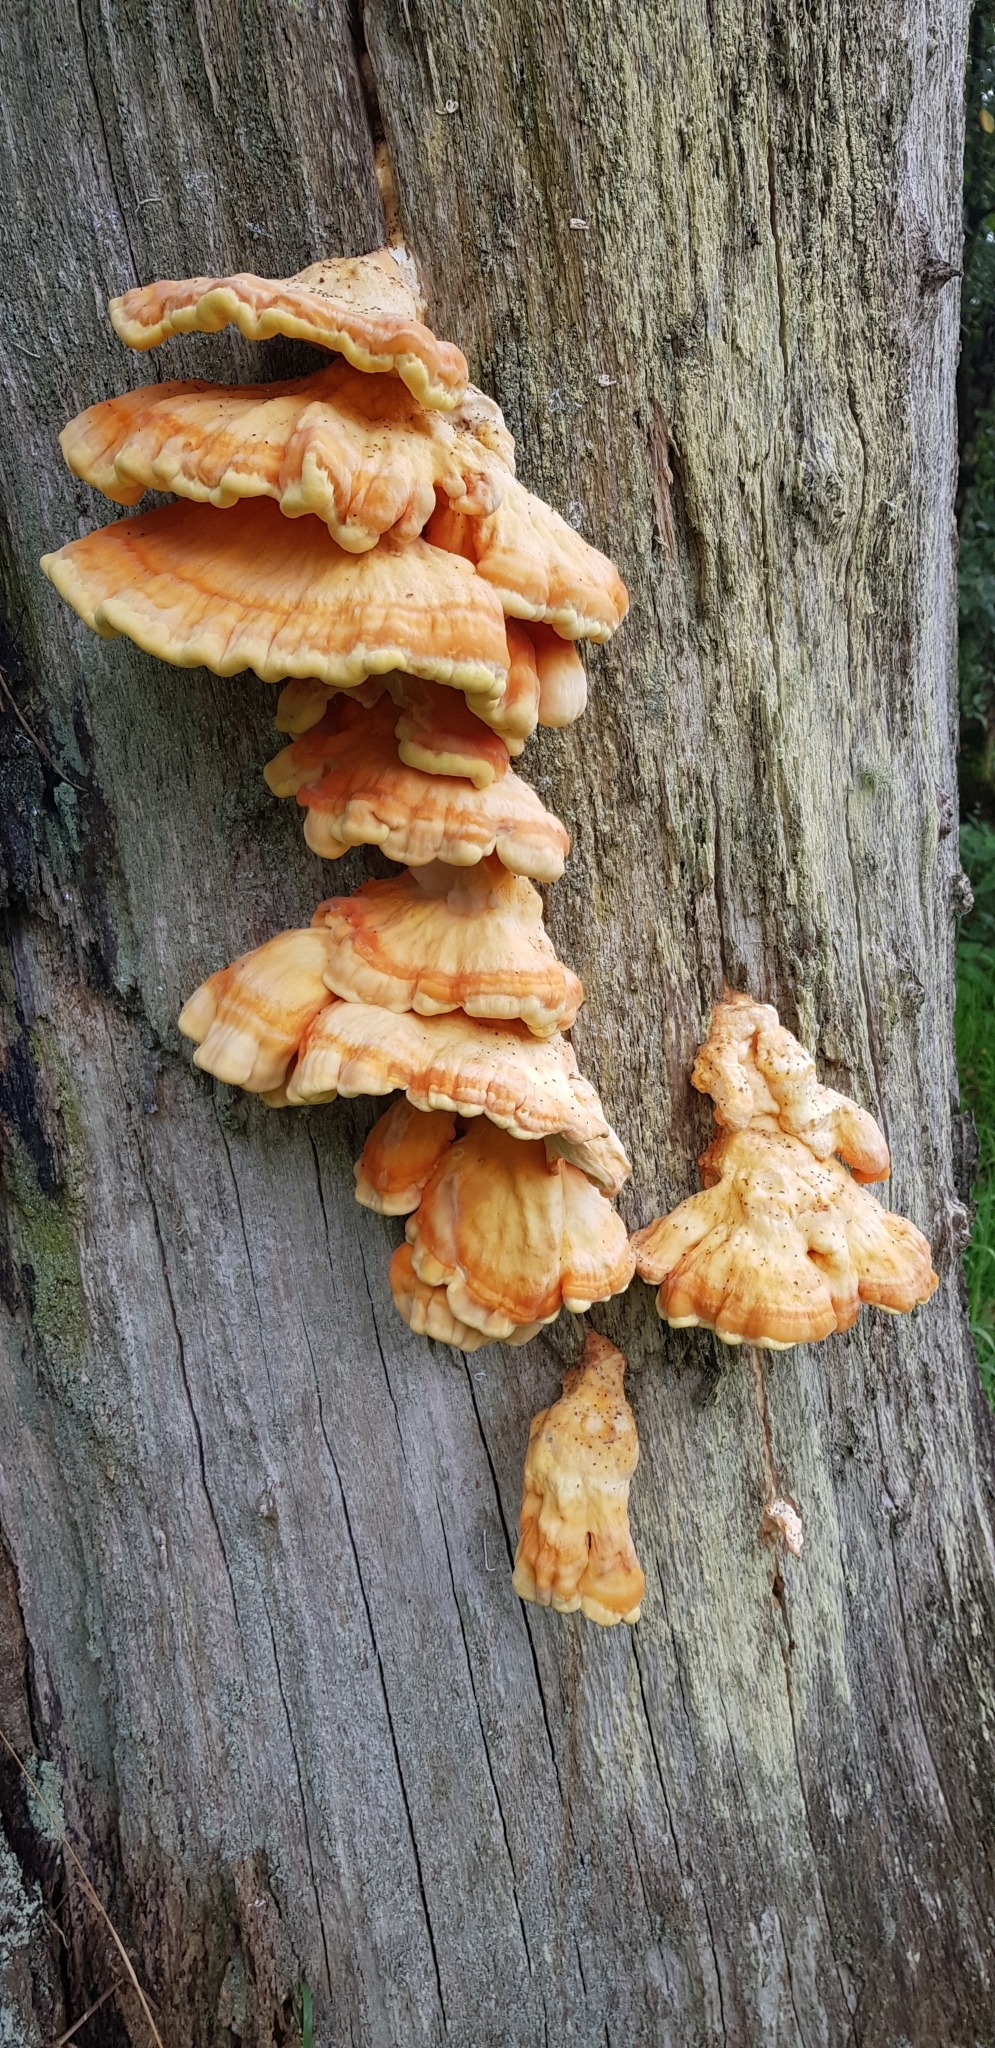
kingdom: Fungi
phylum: Basidiomycota
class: Agaricomycetes
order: Polyporales
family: Laetiporaceae
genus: Laetiporus
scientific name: Laetiporus sulphureus
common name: Chicken of the woods
